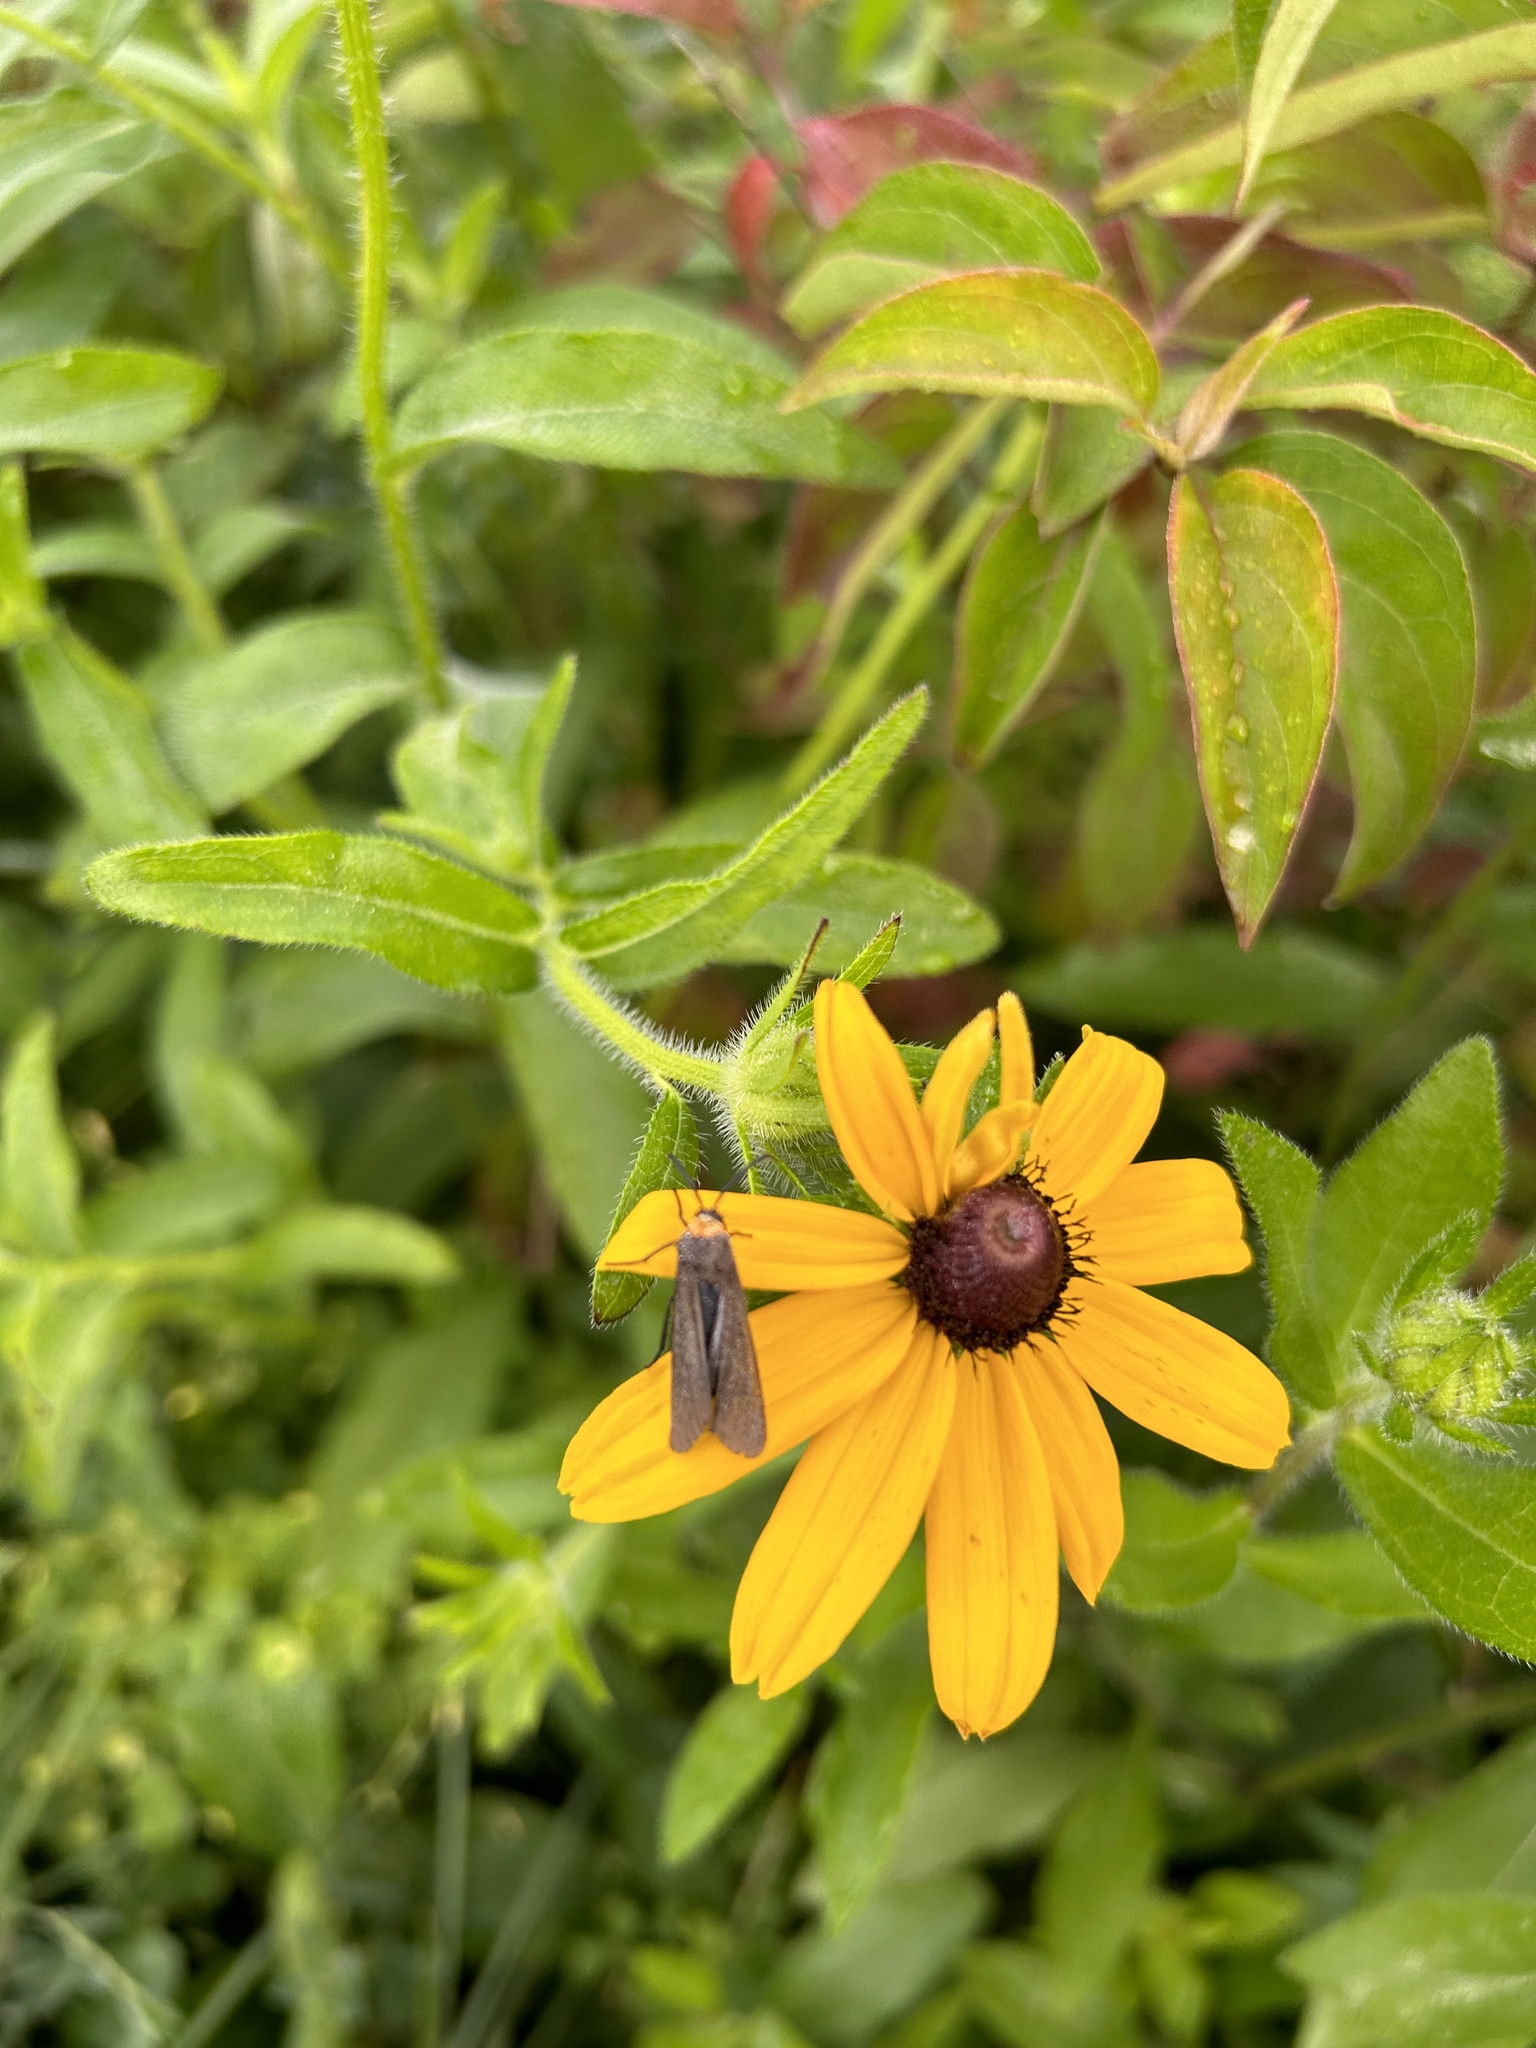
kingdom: Animalia
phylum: Arthropoda
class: Insecta
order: Lepidoptera
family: Erebidae
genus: Cisseps
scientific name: Cisseps fulvicollis
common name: Yellow-collared scape moth
